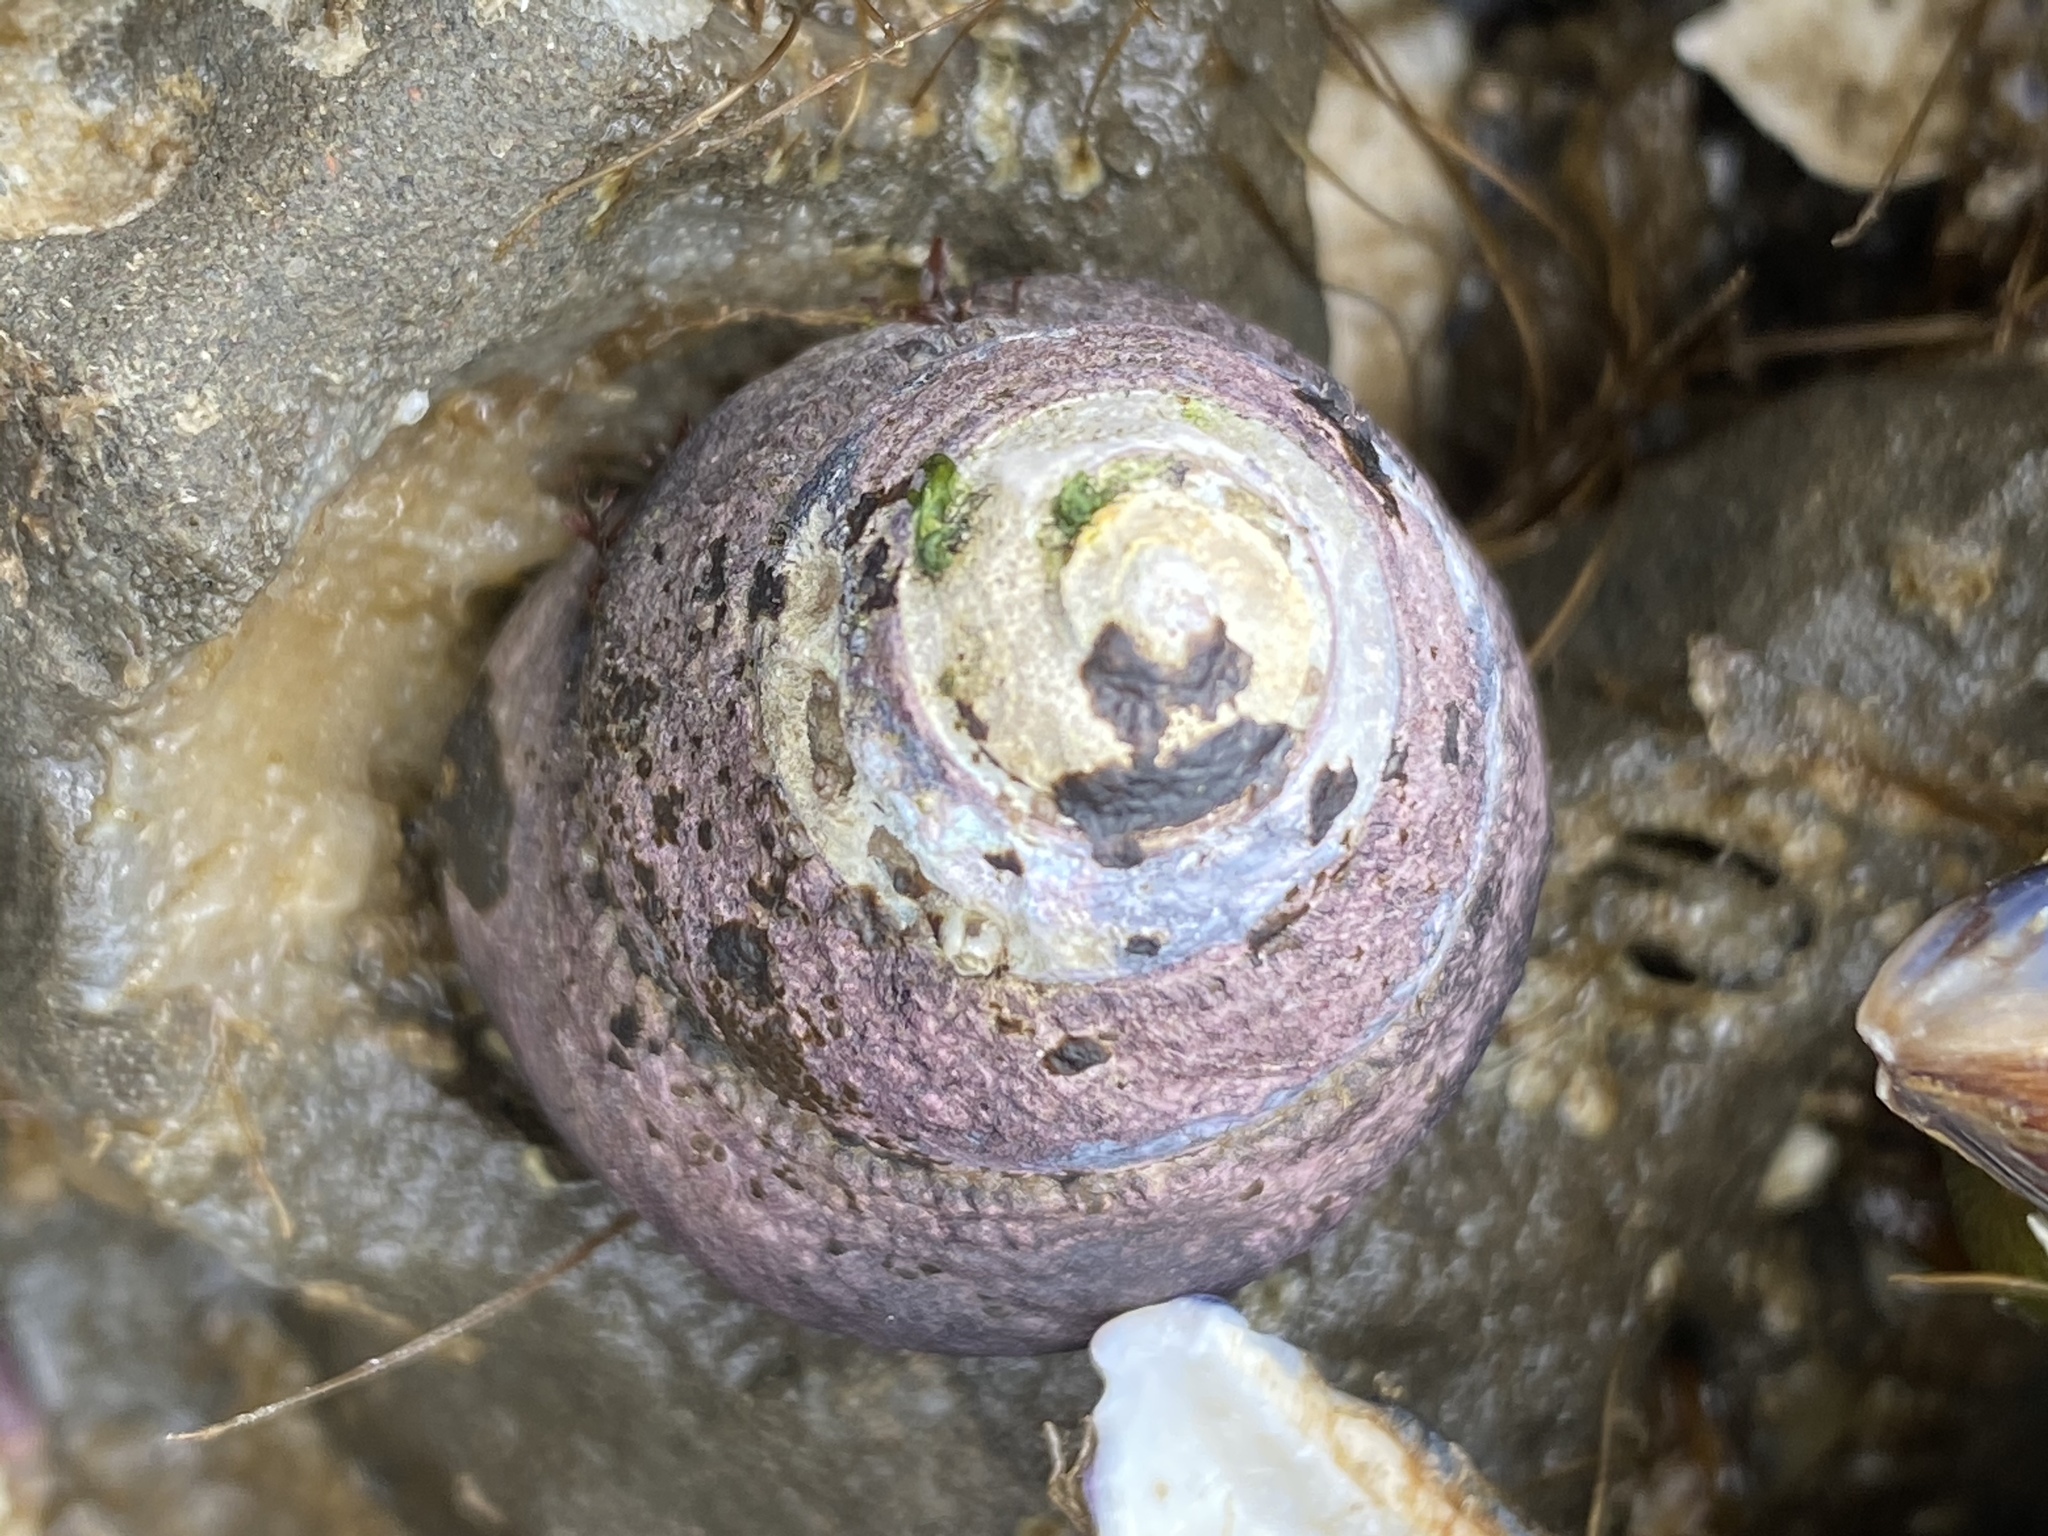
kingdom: Animalia
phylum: Mollusca
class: Gastropoda
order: Trochida
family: Tegulidae
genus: Tegula
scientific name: Tegula funebralis
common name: Black tegula
